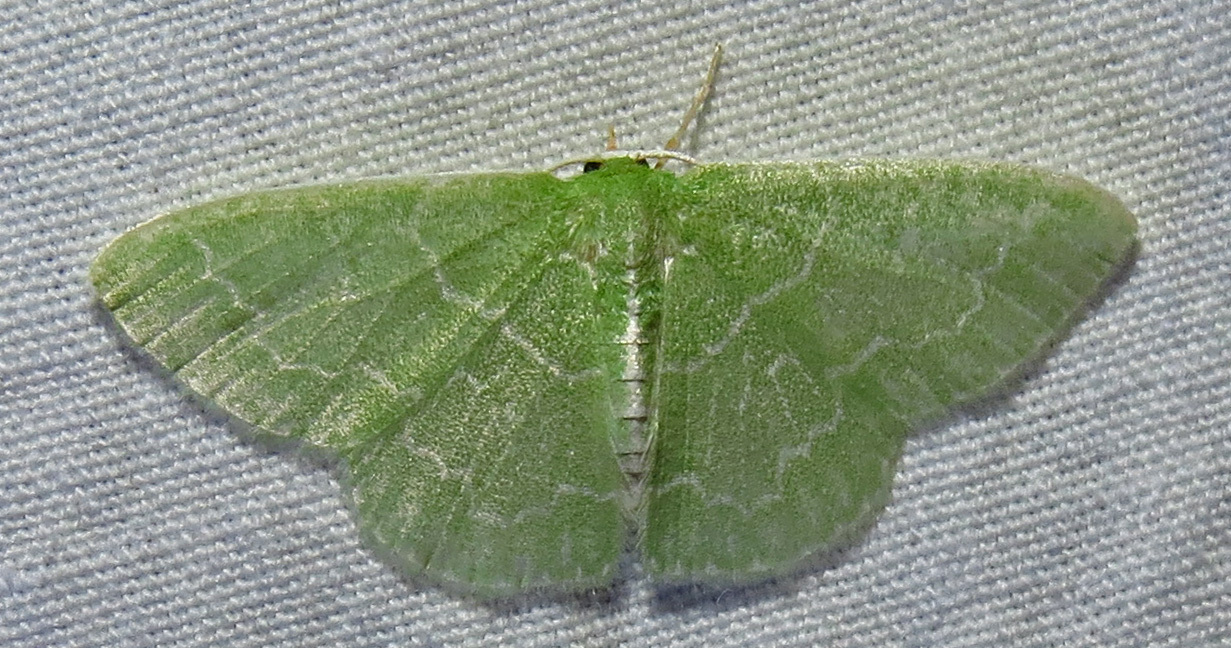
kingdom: Animalia
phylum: Arthropoda
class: Insecta
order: Lepidoptera
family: Geometridae
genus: Synchlora
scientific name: Synchlora aerata
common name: Wavy-lined emerald
